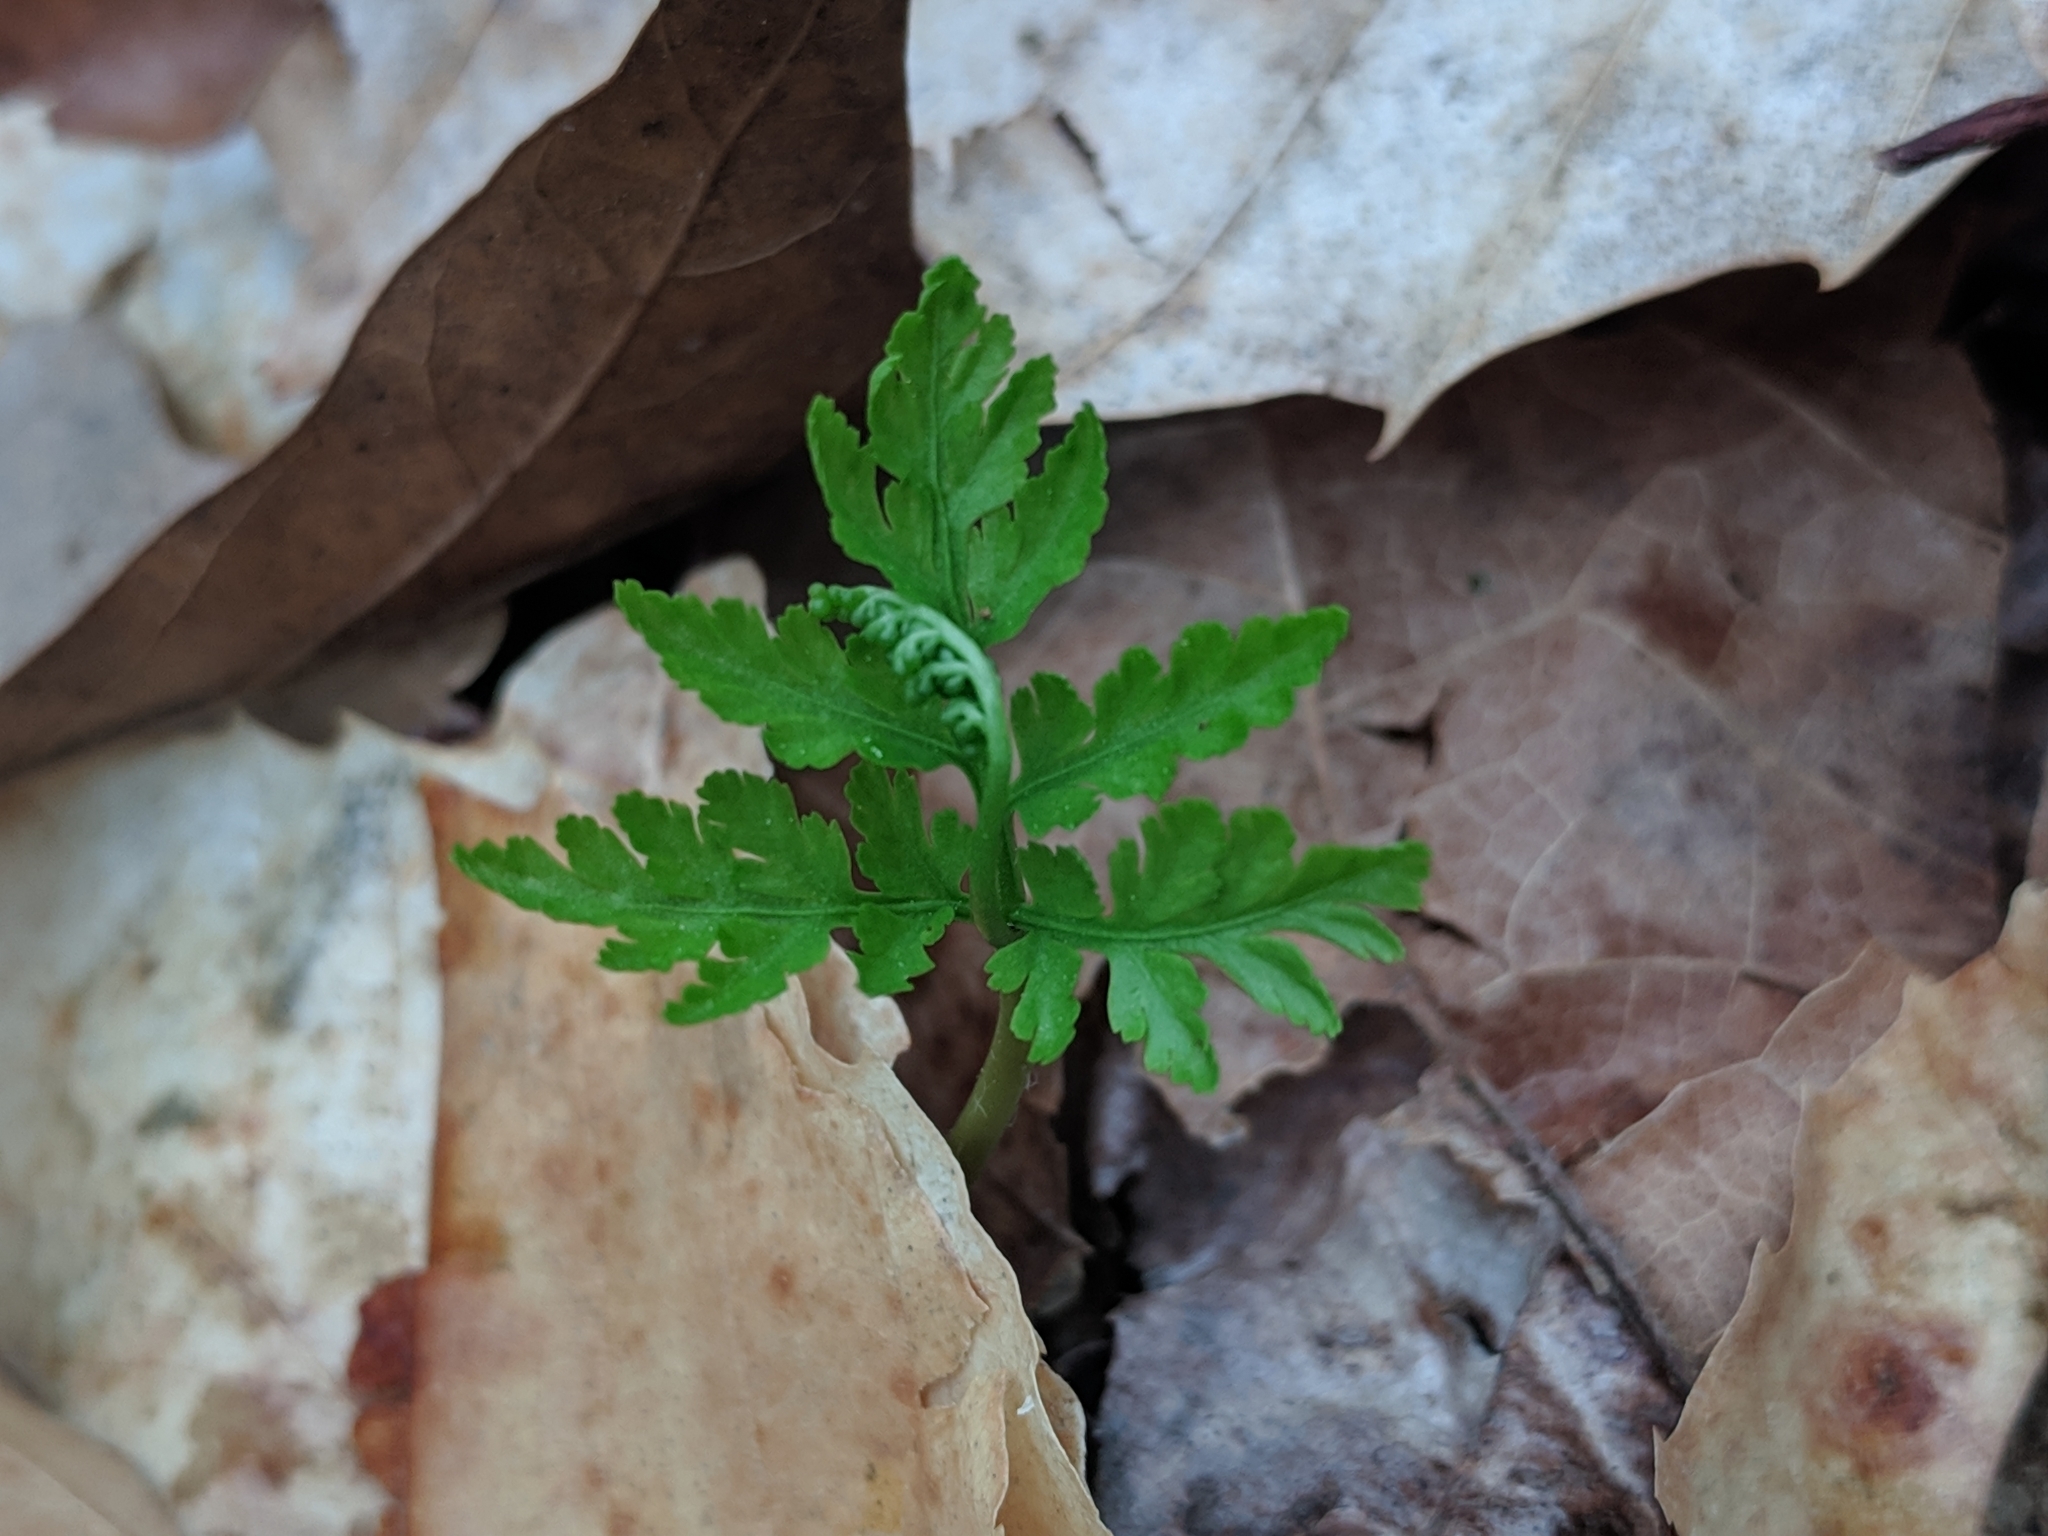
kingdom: Plantae
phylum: Tracheophyta
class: Polypodiopsida
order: Ophioglossales
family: Ophioglossaceae
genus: Botrypus
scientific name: Botrypus virginianus
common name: Common grapefern
